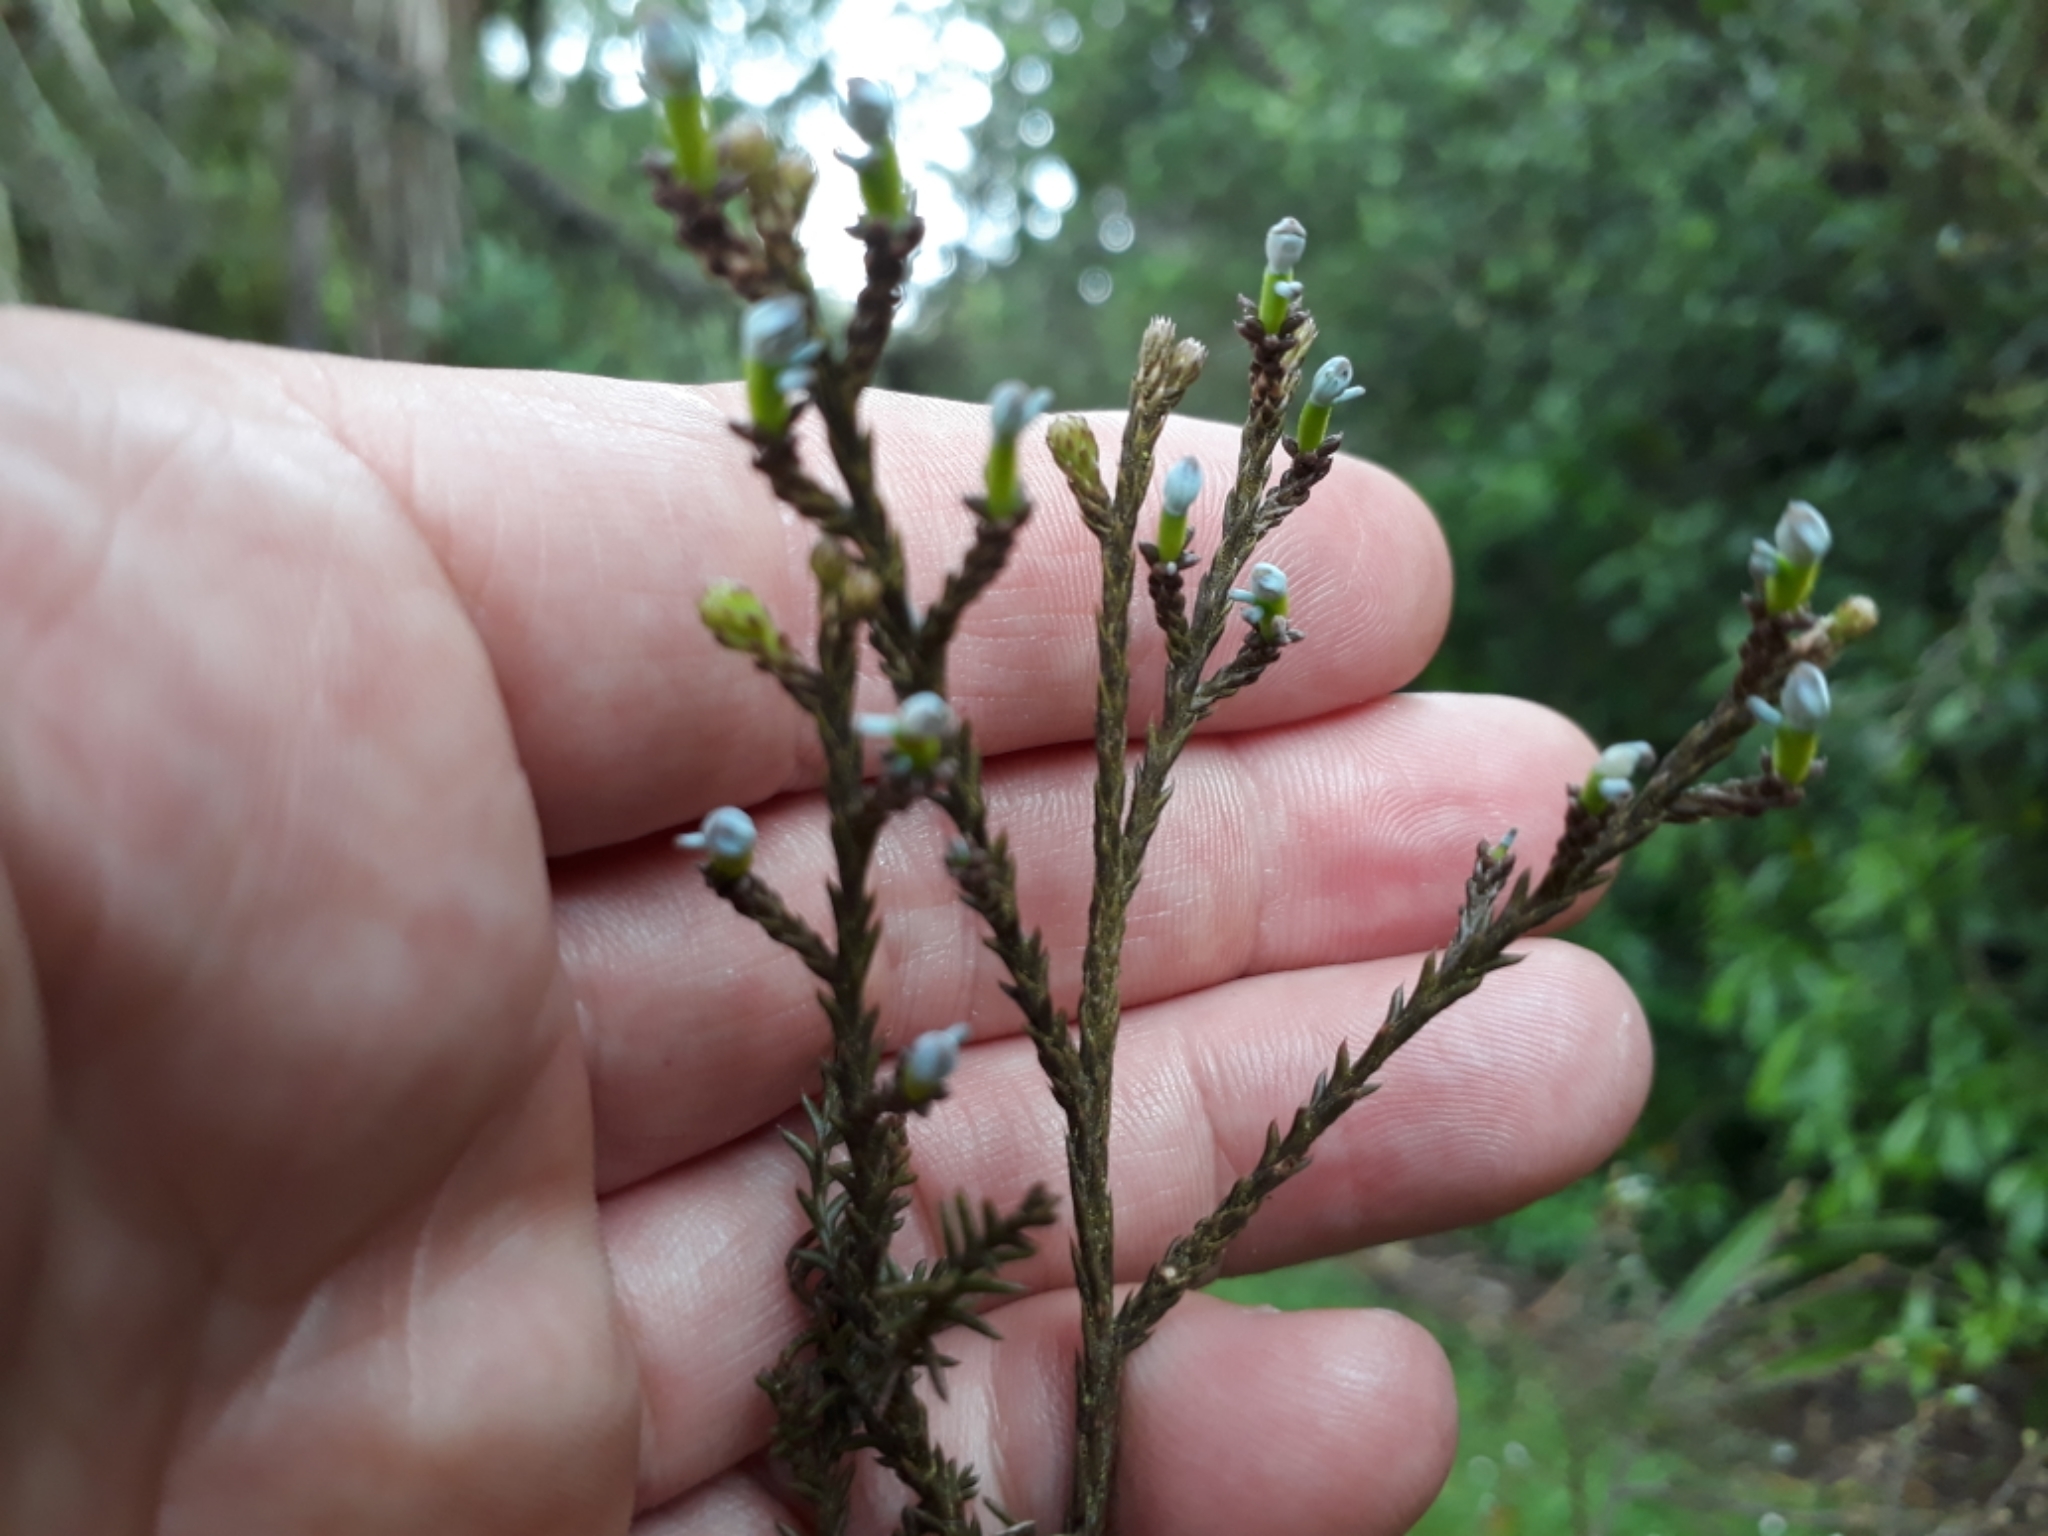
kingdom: Plantae
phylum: Tracheophyta
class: Pinopsida
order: Pinales
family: Podocarpaceae
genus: Dacrycarpus
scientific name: Dacrycarpus dacrydioides
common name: White pine
